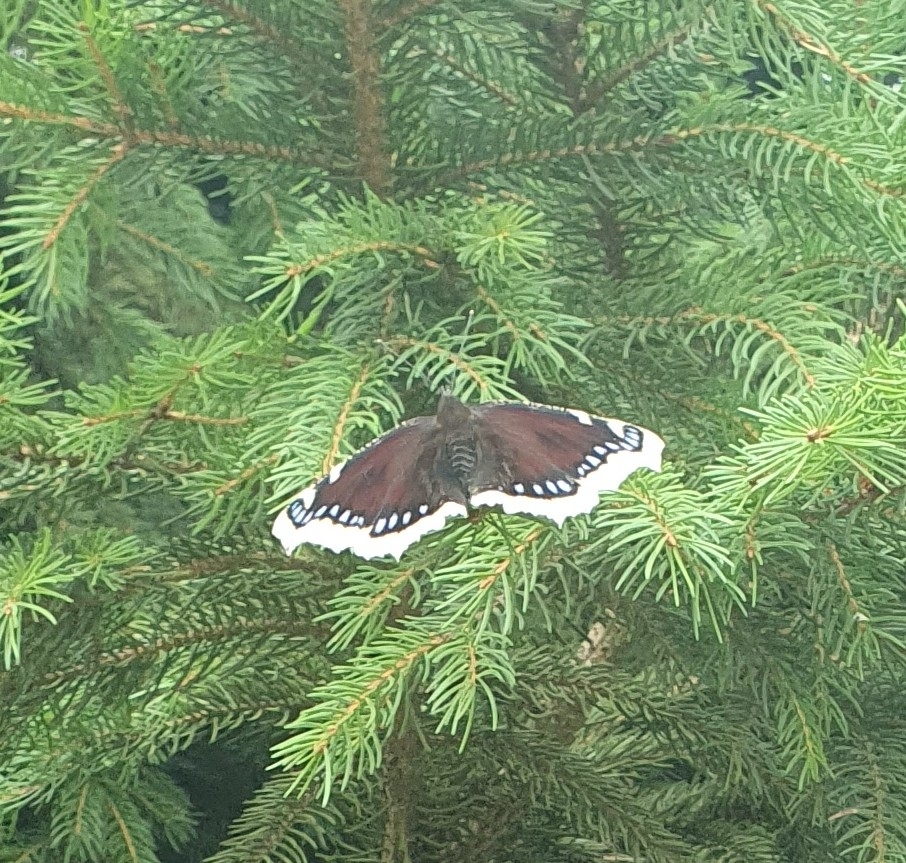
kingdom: Animalia
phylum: Arthropoda
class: Insecta
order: Lepidoptera
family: Nymphalidae
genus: Nymphalis
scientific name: Nymphalis antiopa
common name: Camberwell beauty
